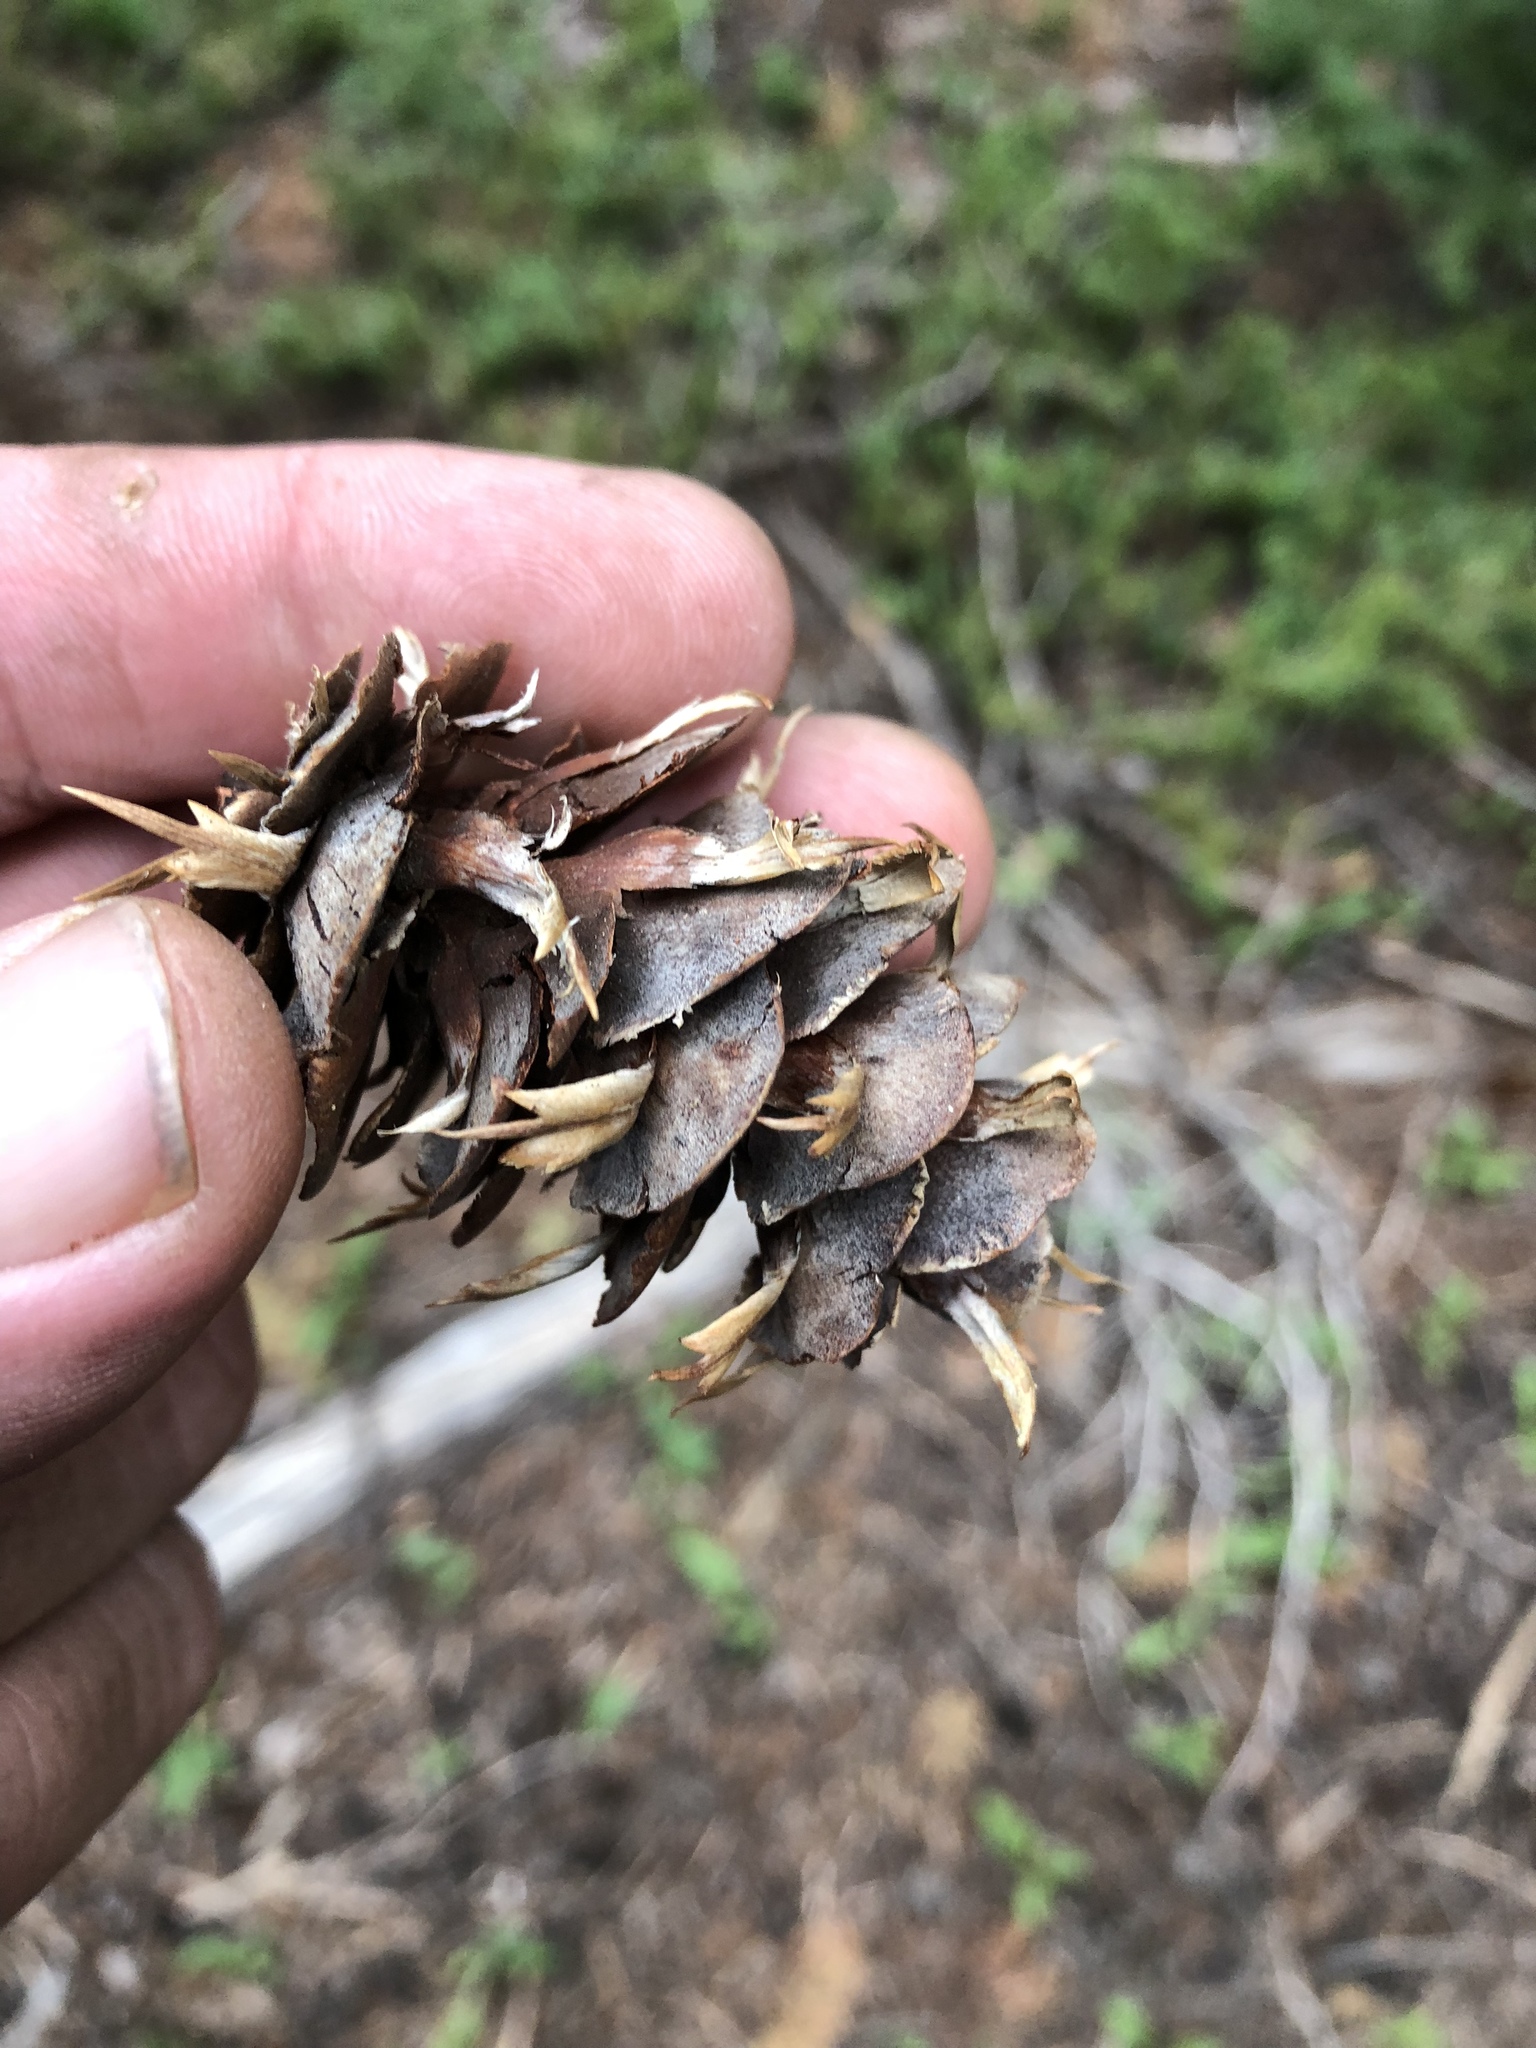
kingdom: Plantae
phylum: Tracheophyta
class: Pinopsida
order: Pinales
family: Pinaceae
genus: Pseudotsuga
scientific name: Pseudotsuga menziesii
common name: Douglas fir
